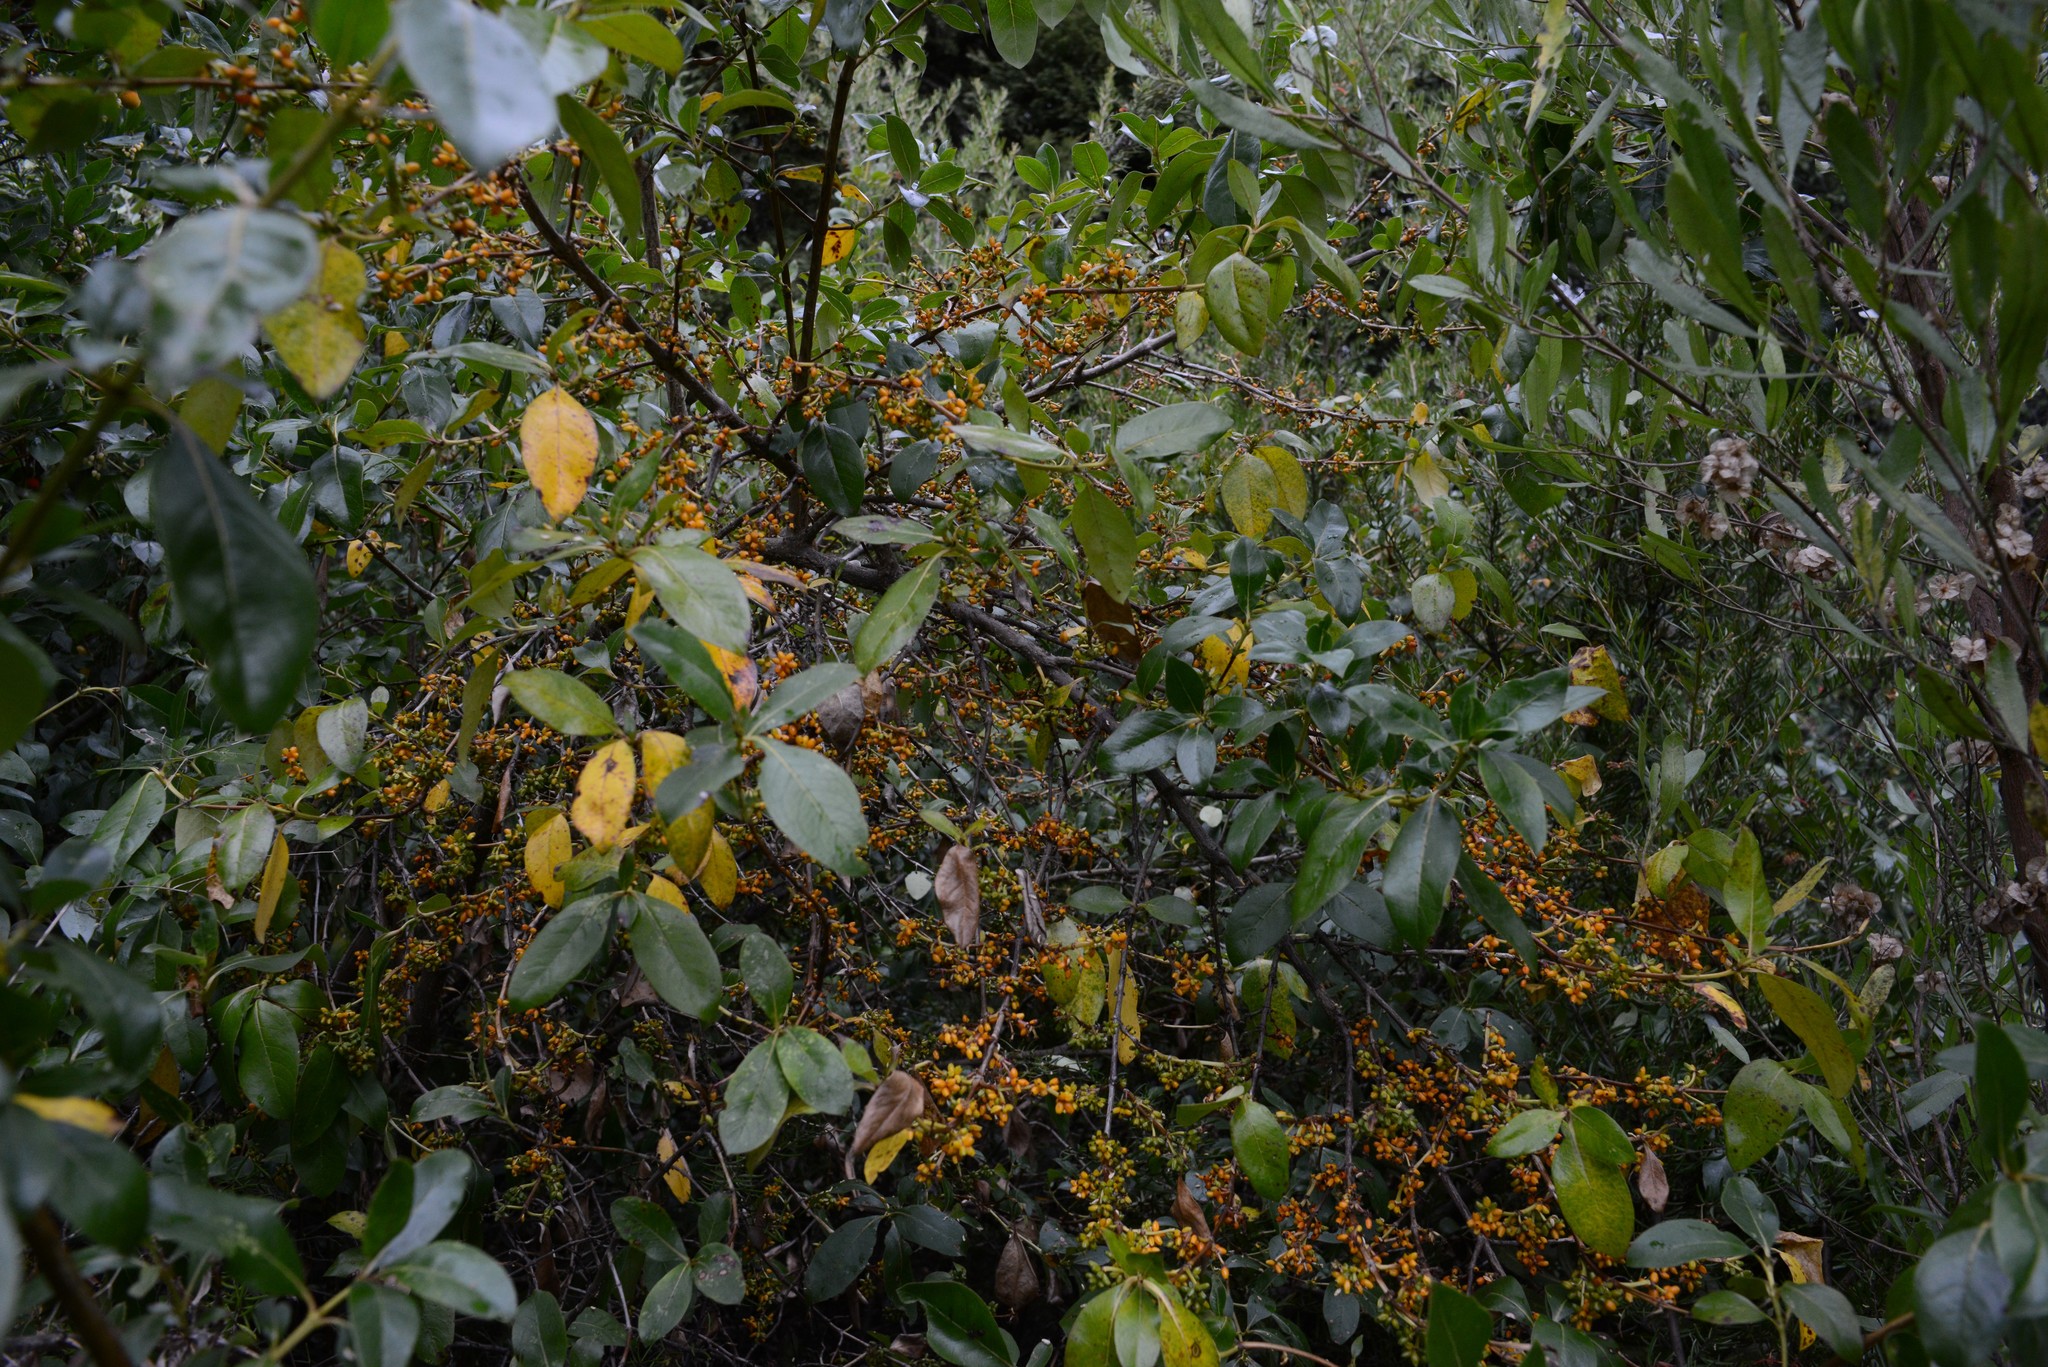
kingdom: Plantae
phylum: Tracheophyta
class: Magnoliopsida
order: Gentianales
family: Rubiaceae
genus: Coprosma
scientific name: Coprosma robusta
